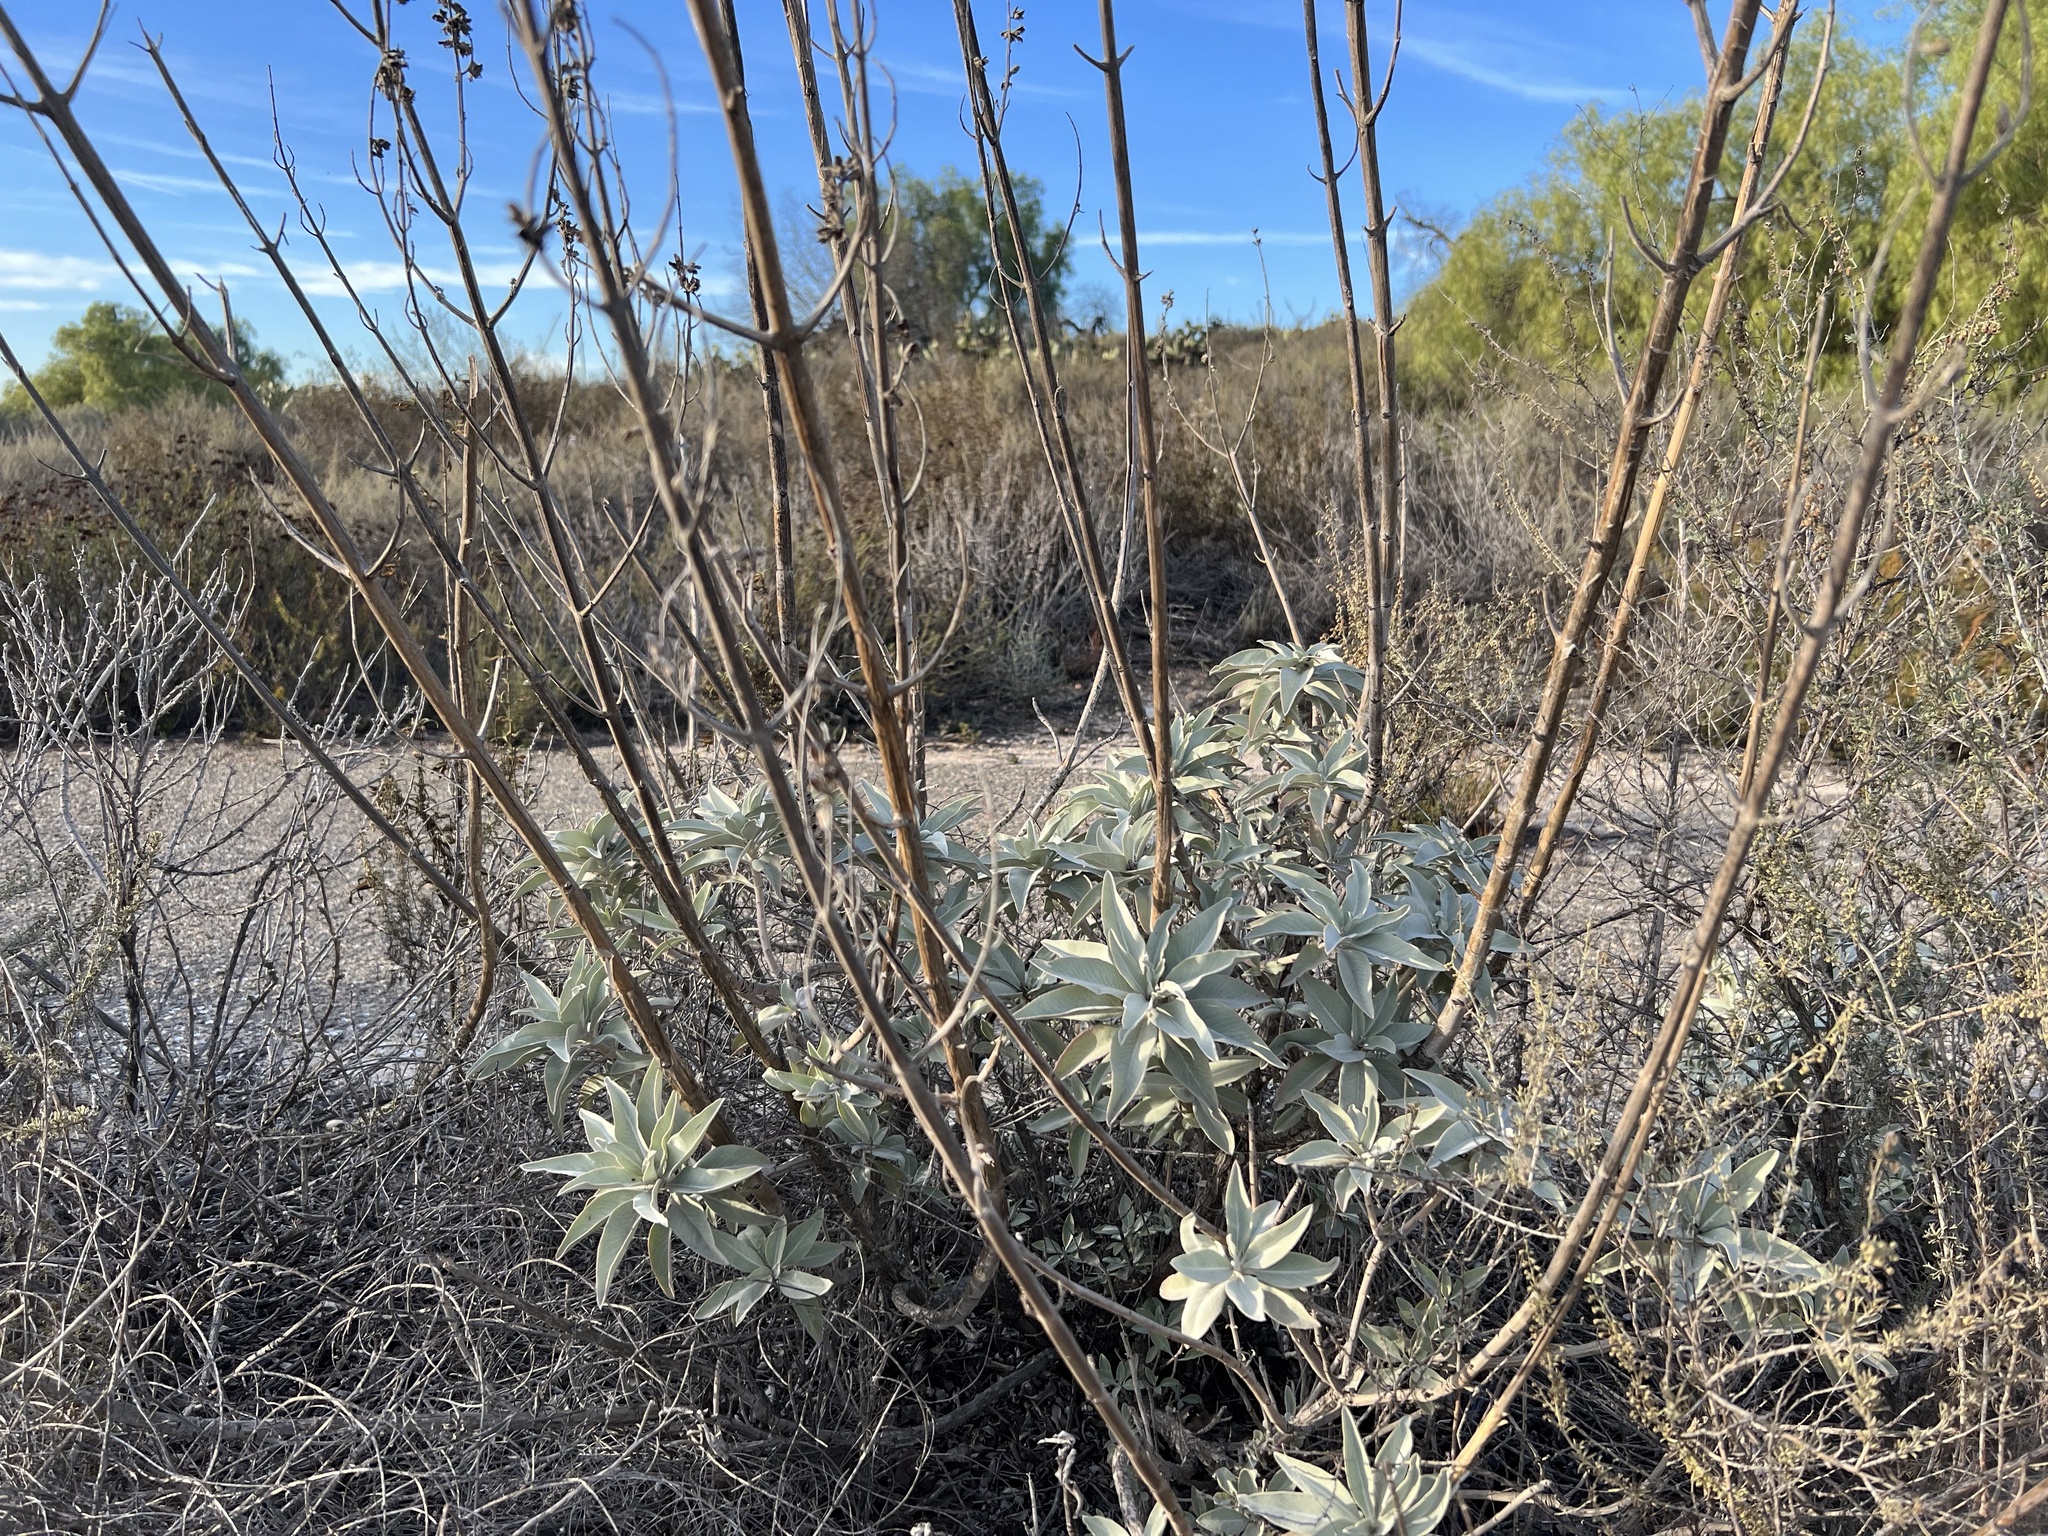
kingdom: Plantae
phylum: Tracheophyta
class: Magnoliopsida
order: Lamiales
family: Lamiaceae
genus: Salvia
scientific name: Salvia apiana
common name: White sage
